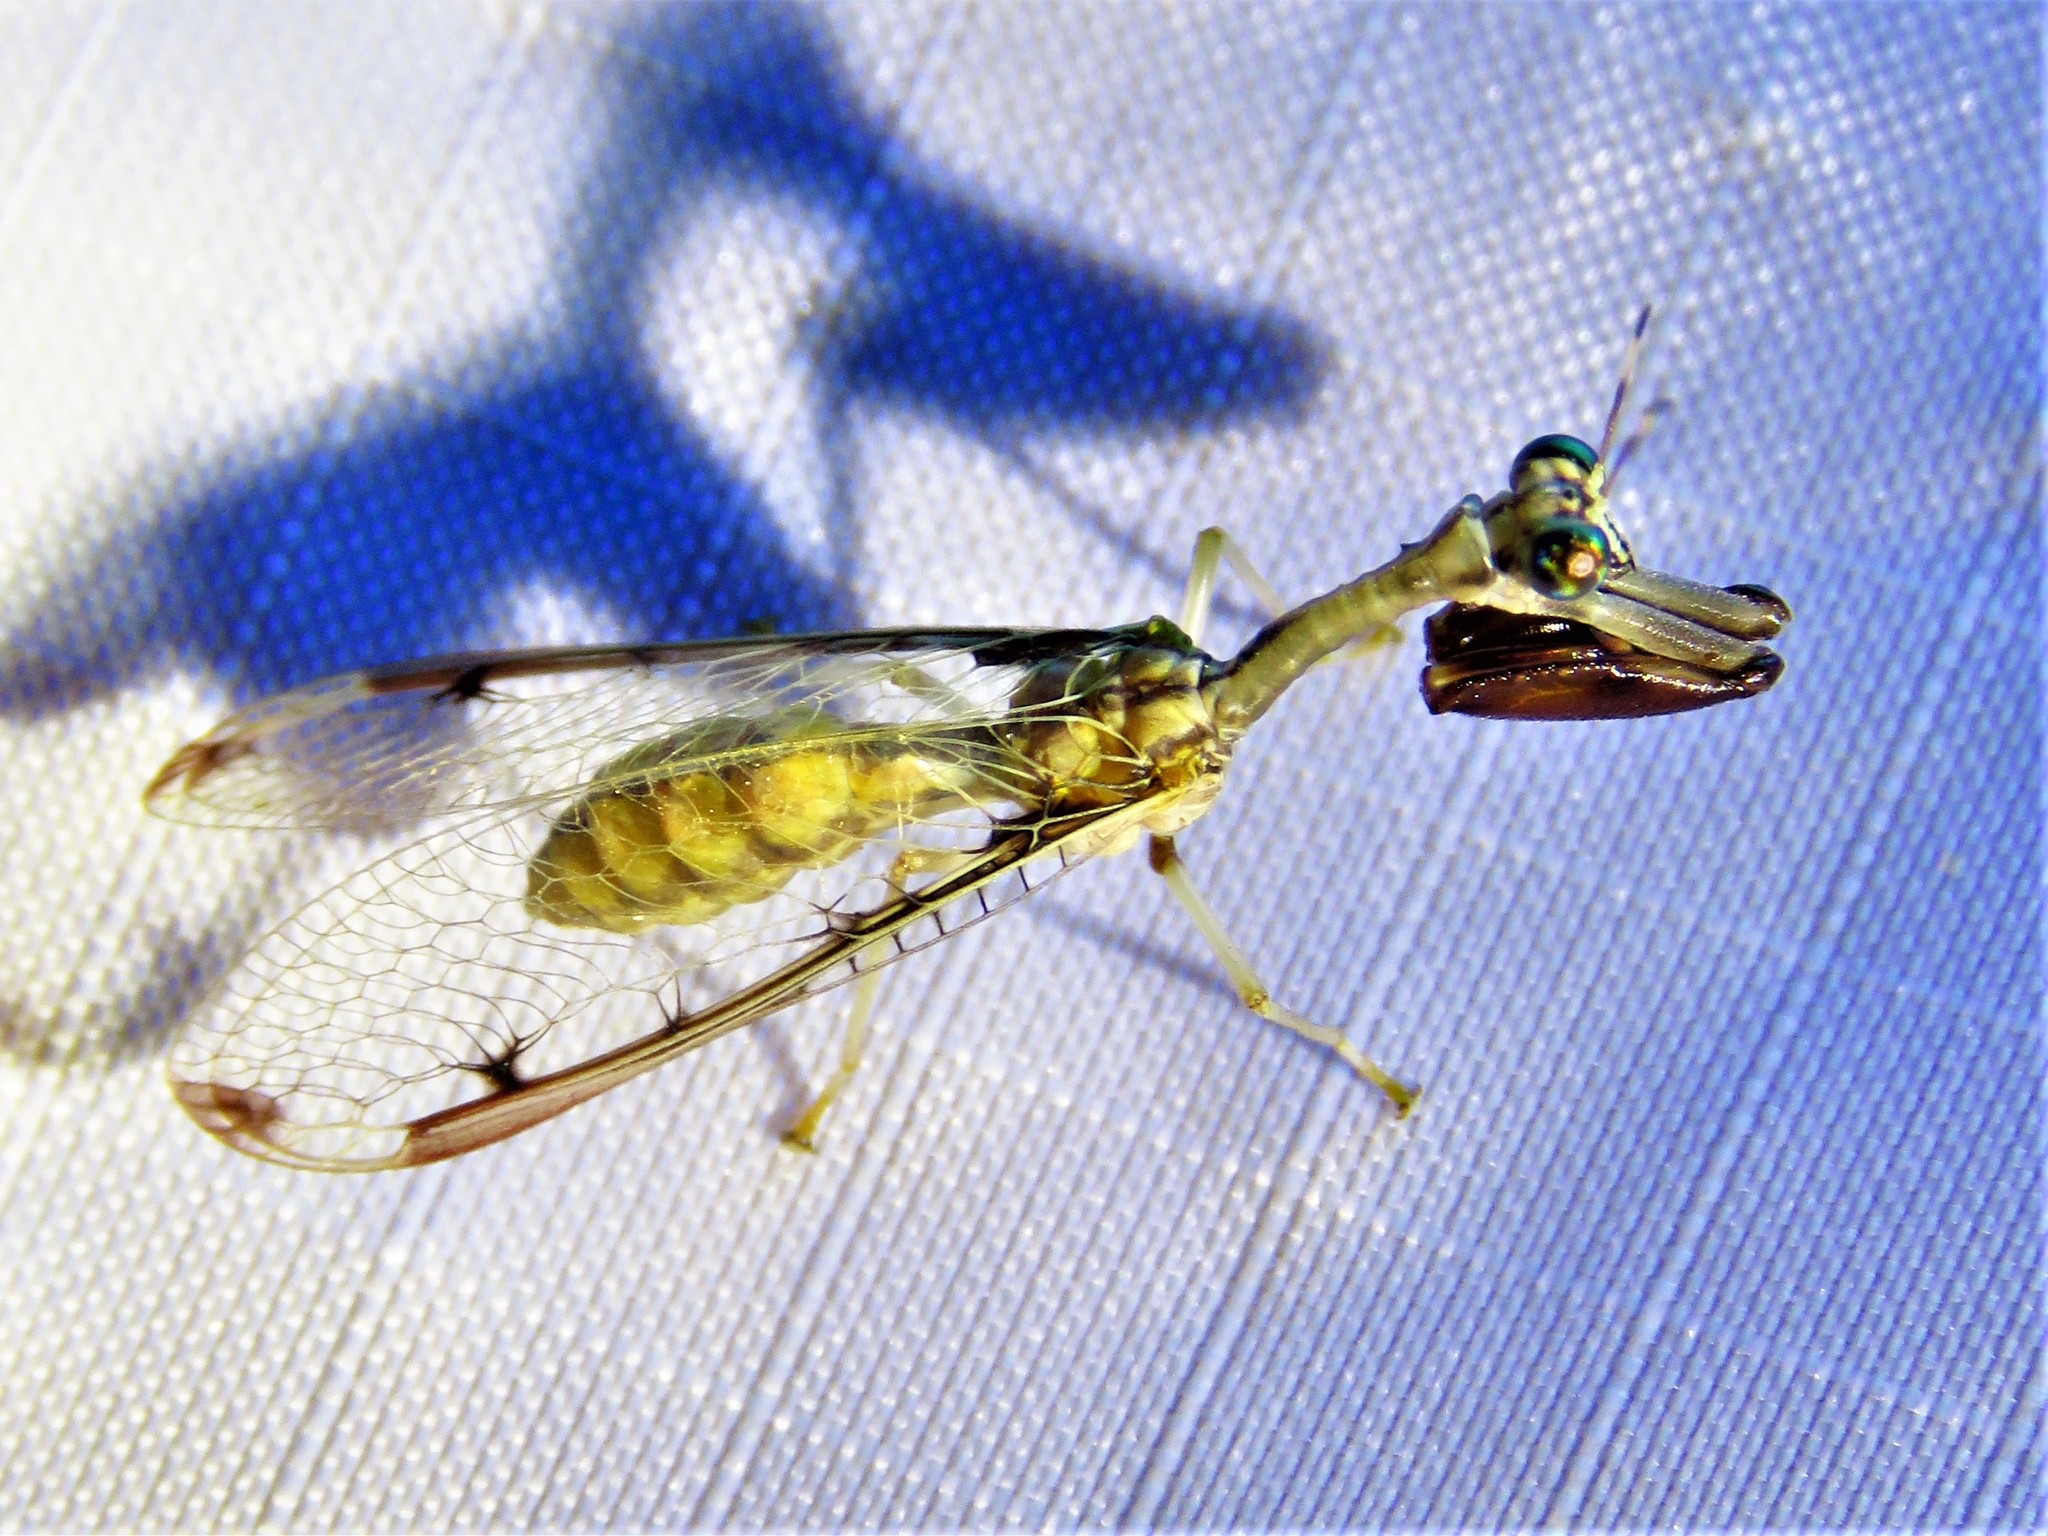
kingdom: Animalia
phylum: Arthropoda
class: Insecta
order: Neuroptera
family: Mantispidae
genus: Dicromantispa
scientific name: Dicromantispa interrupta
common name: Four-spotted mantidfly
